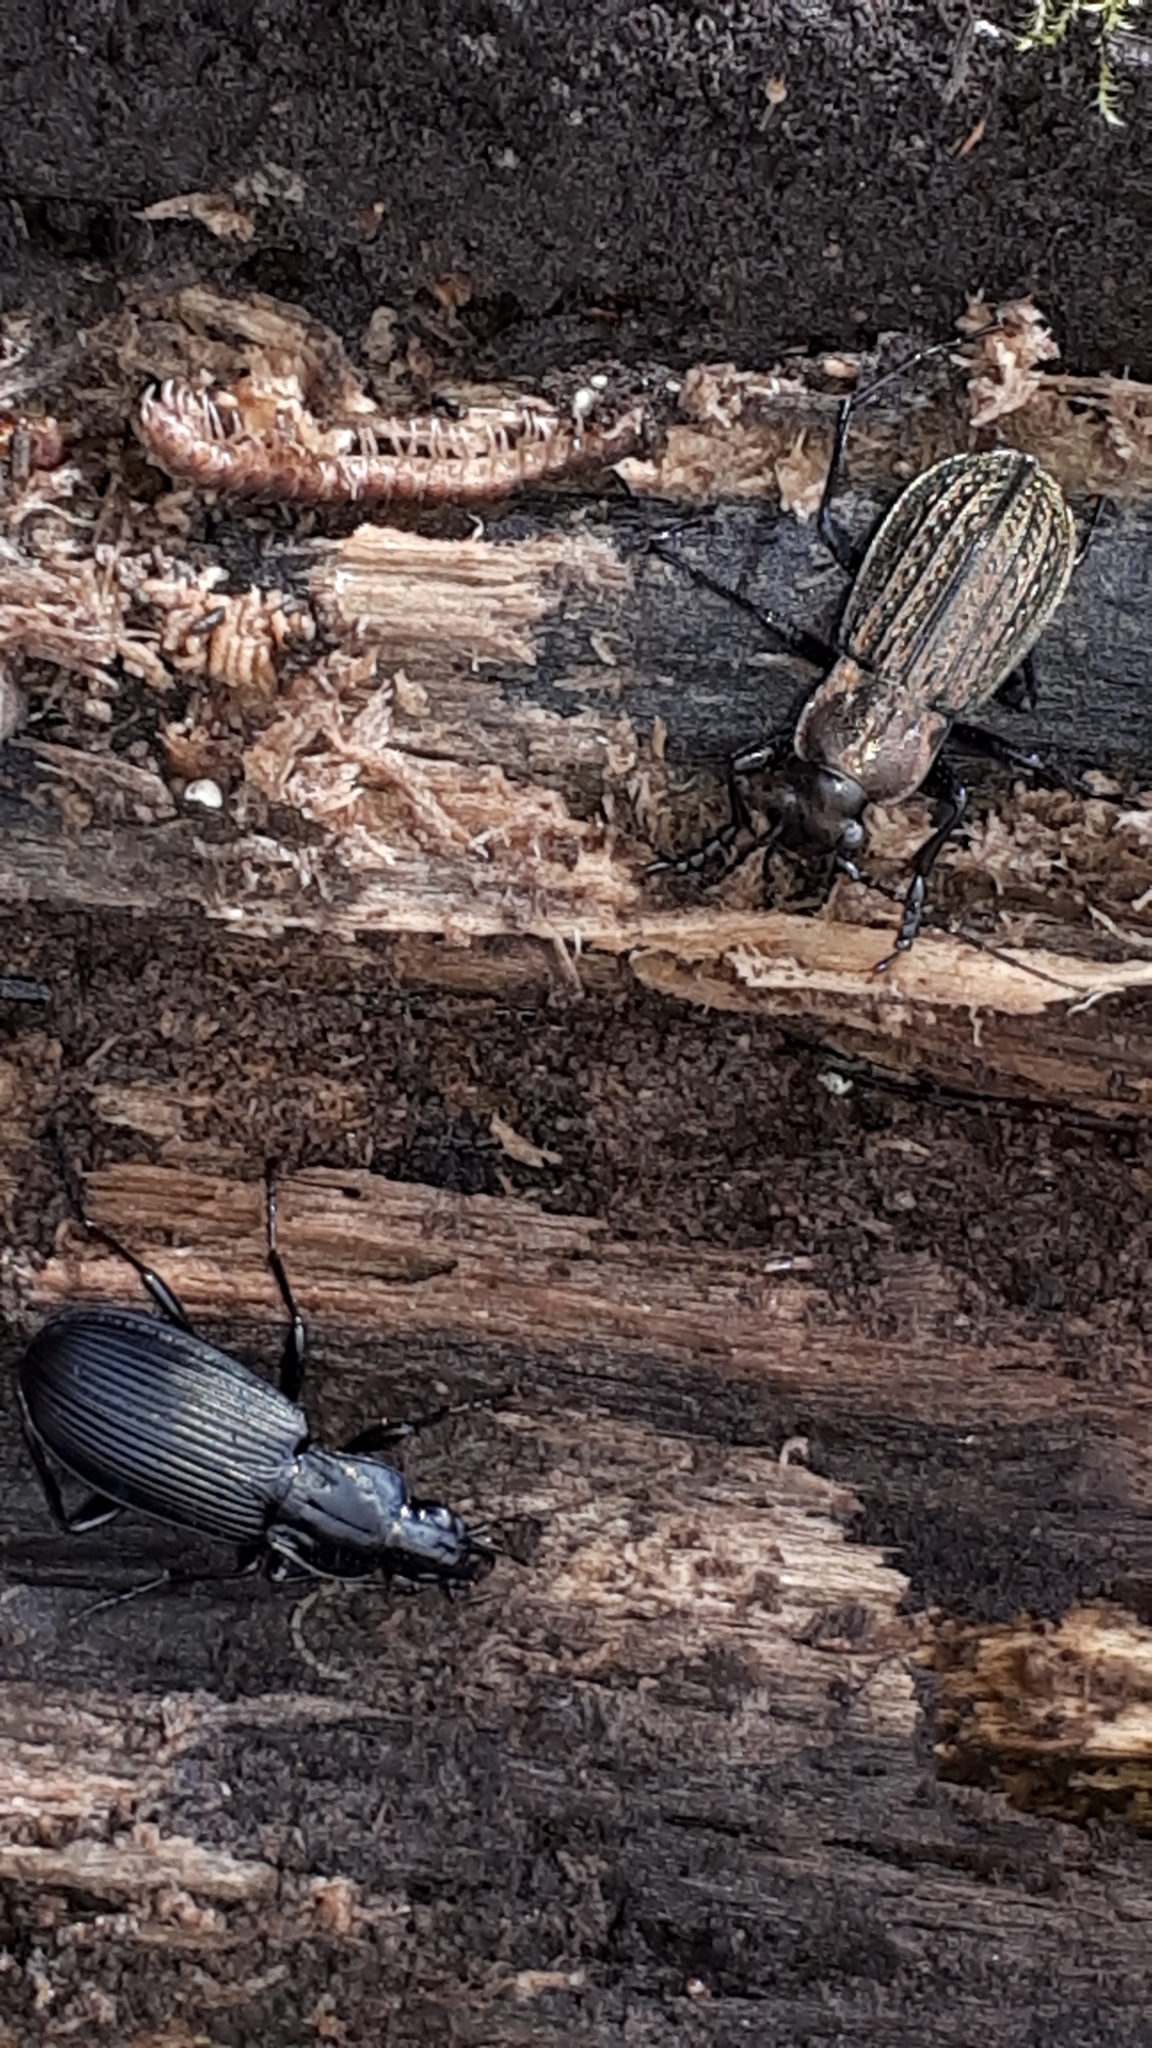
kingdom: Animalia
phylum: Arthropoda
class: Insecta
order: Coleoptera
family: Carabidae
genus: Carabus
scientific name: Carabus granulatus
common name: Granulate ground beetle
